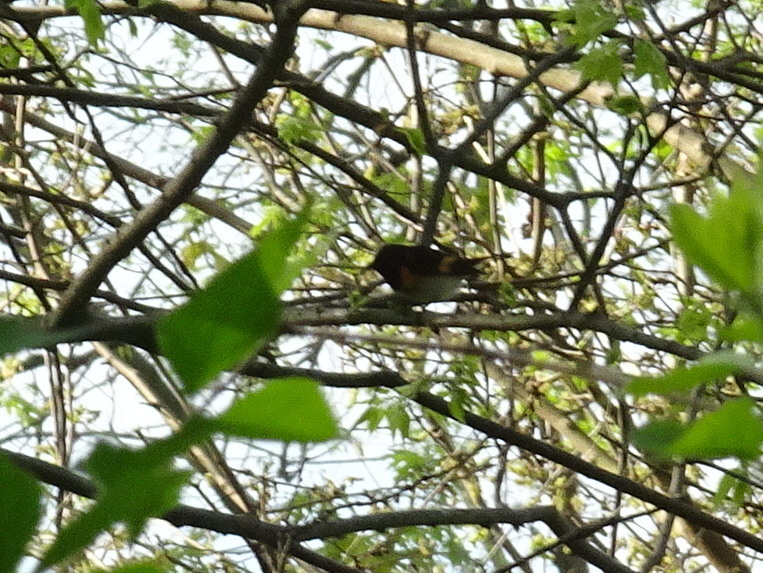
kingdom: Animalia
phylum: Chordata
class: Aves
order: Passeriformes
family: Parulidae
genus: Setophaga
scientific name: Setophaga ruticilla
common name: American redstart
